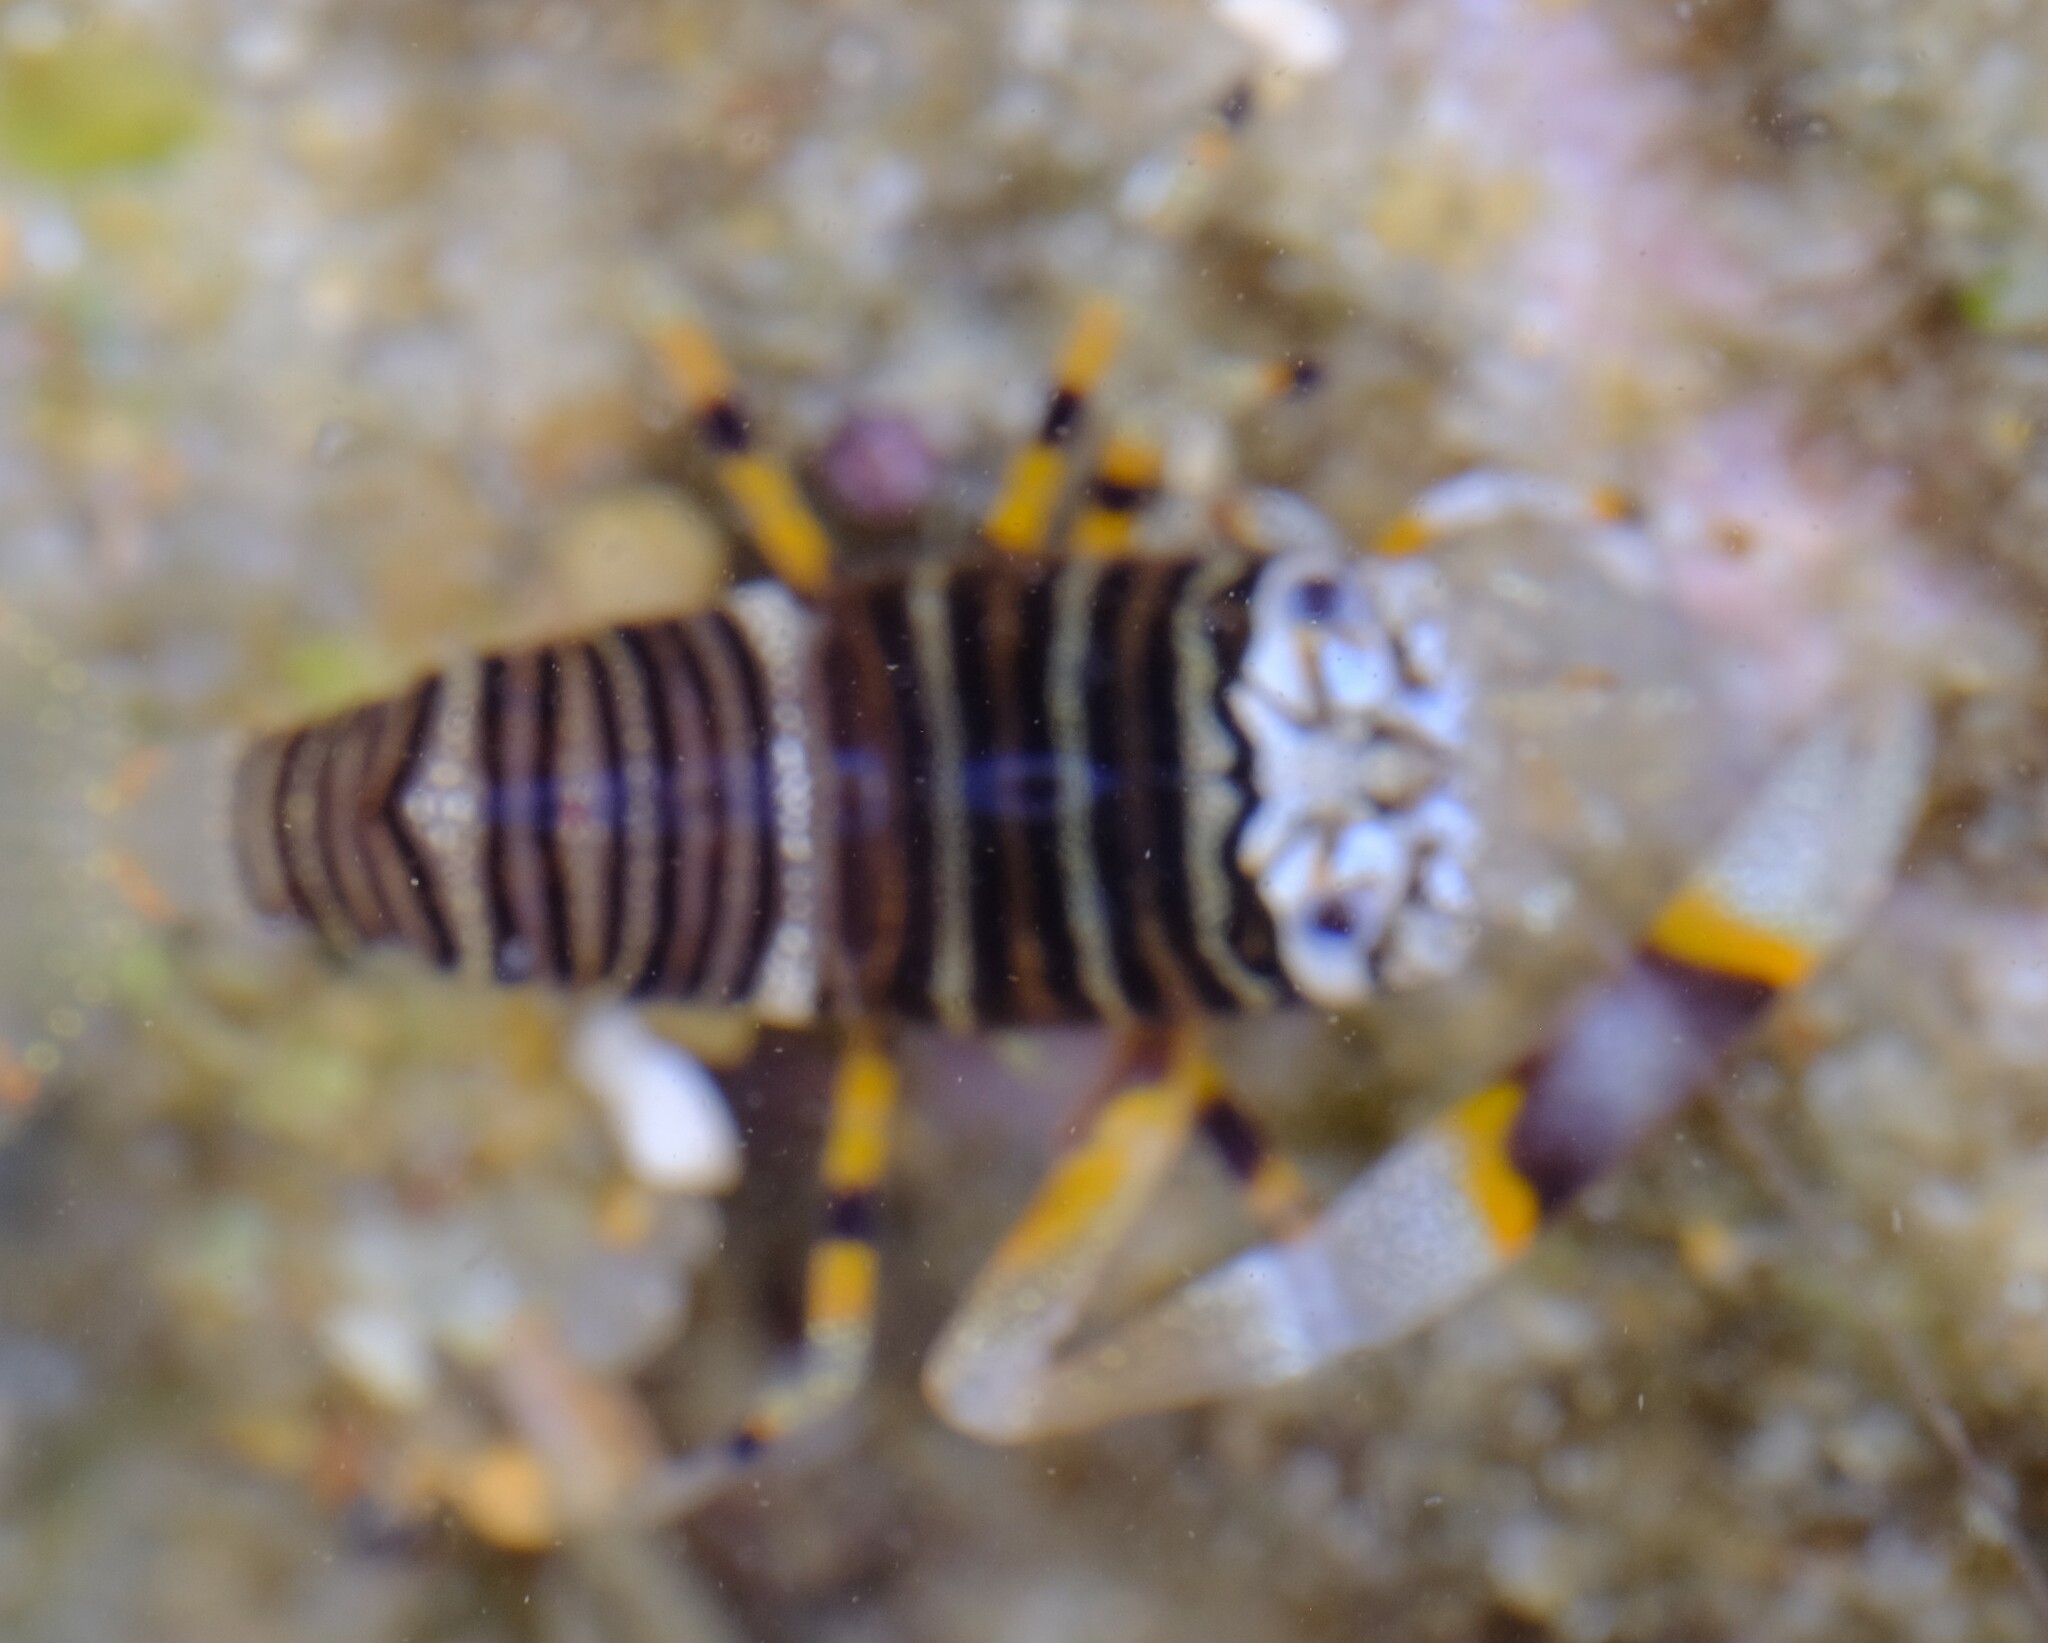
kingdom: Animalia
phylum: Arthropoda
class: Malacostraca
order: Decapoda
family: Palaemonidae
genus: Gnathophyllum
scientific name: Gnathophyllum americanum
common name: Bumblebee shrimp
